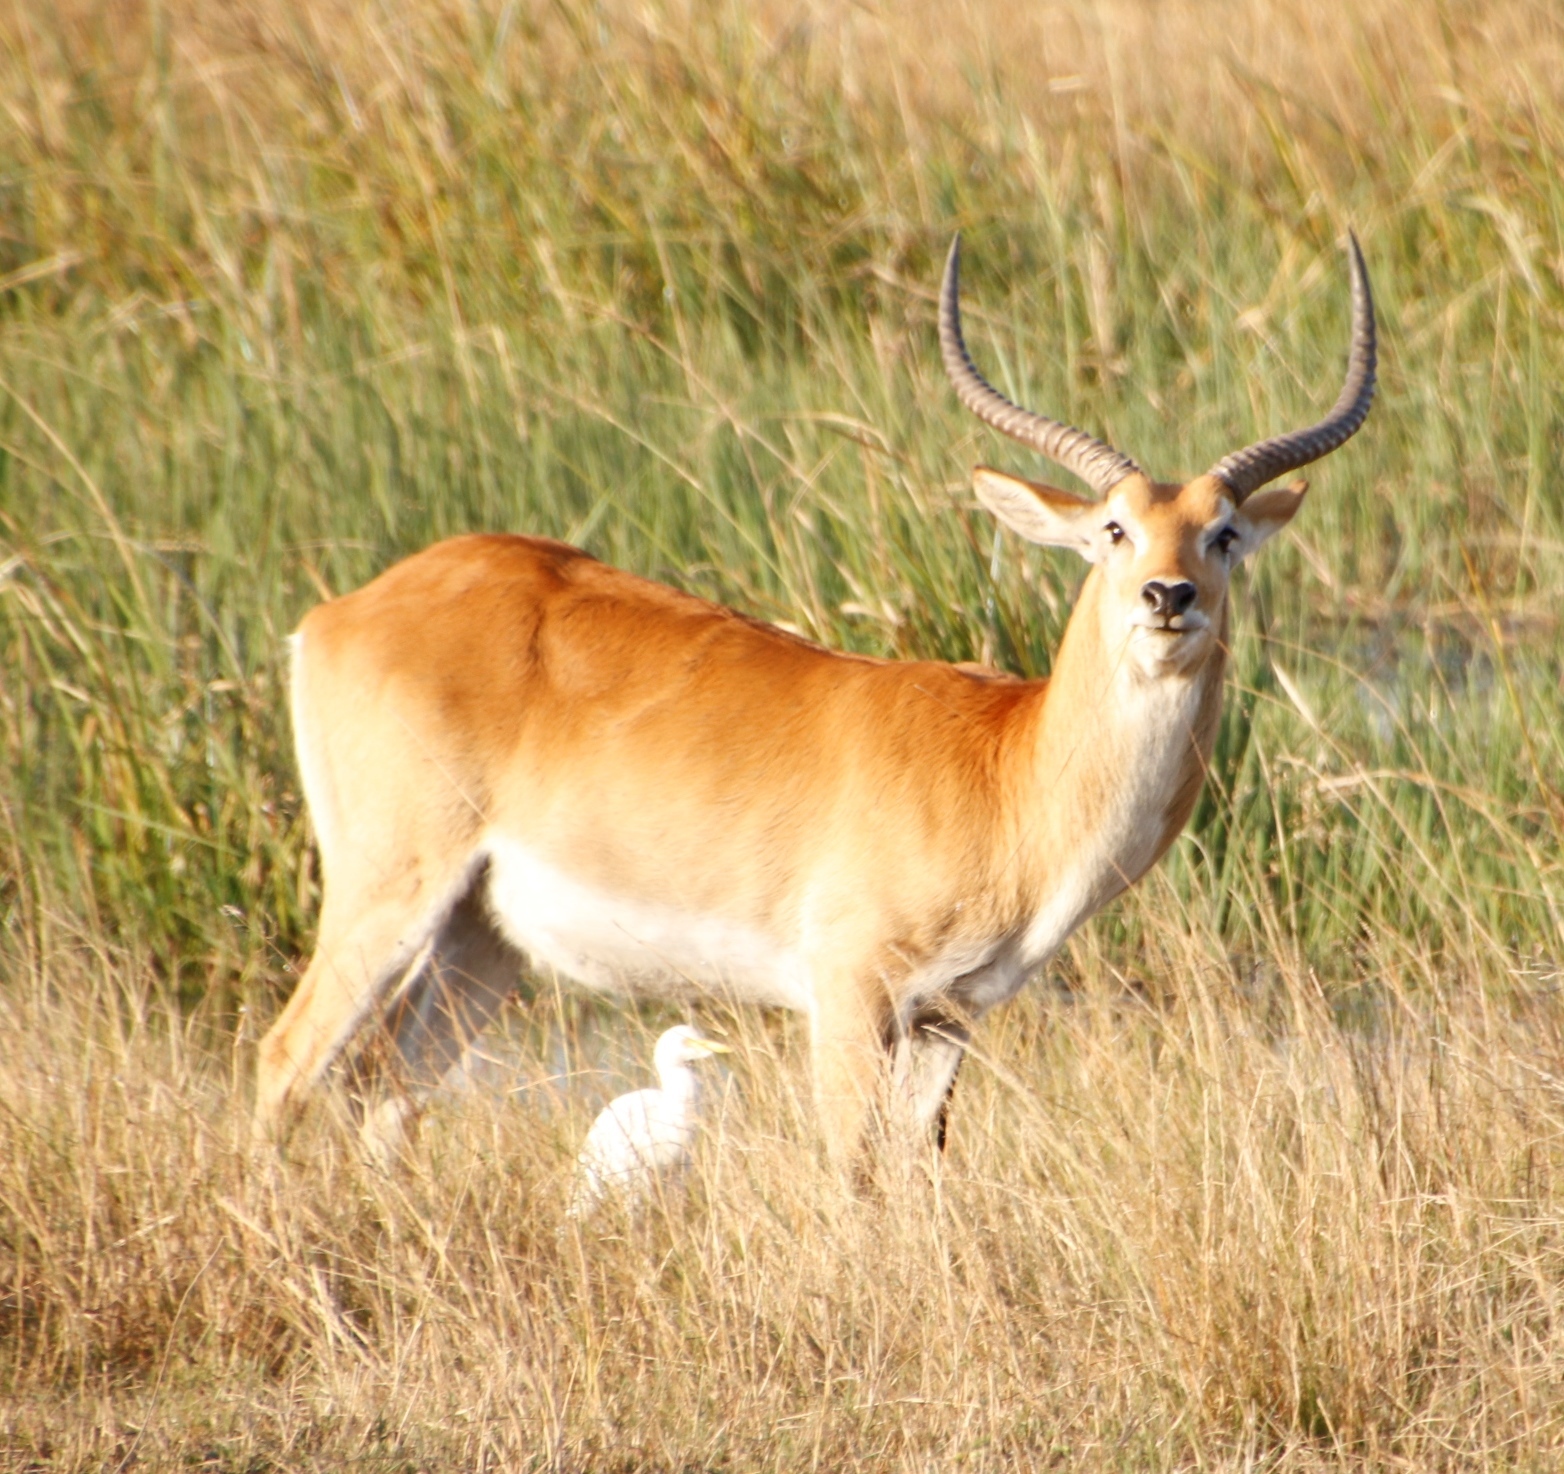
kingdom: Animalia
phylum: Chordata
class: Mammalia
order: Artiodactyla
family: Bovidae
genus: Kobus
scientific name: Kobus leche
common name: Lechwe
